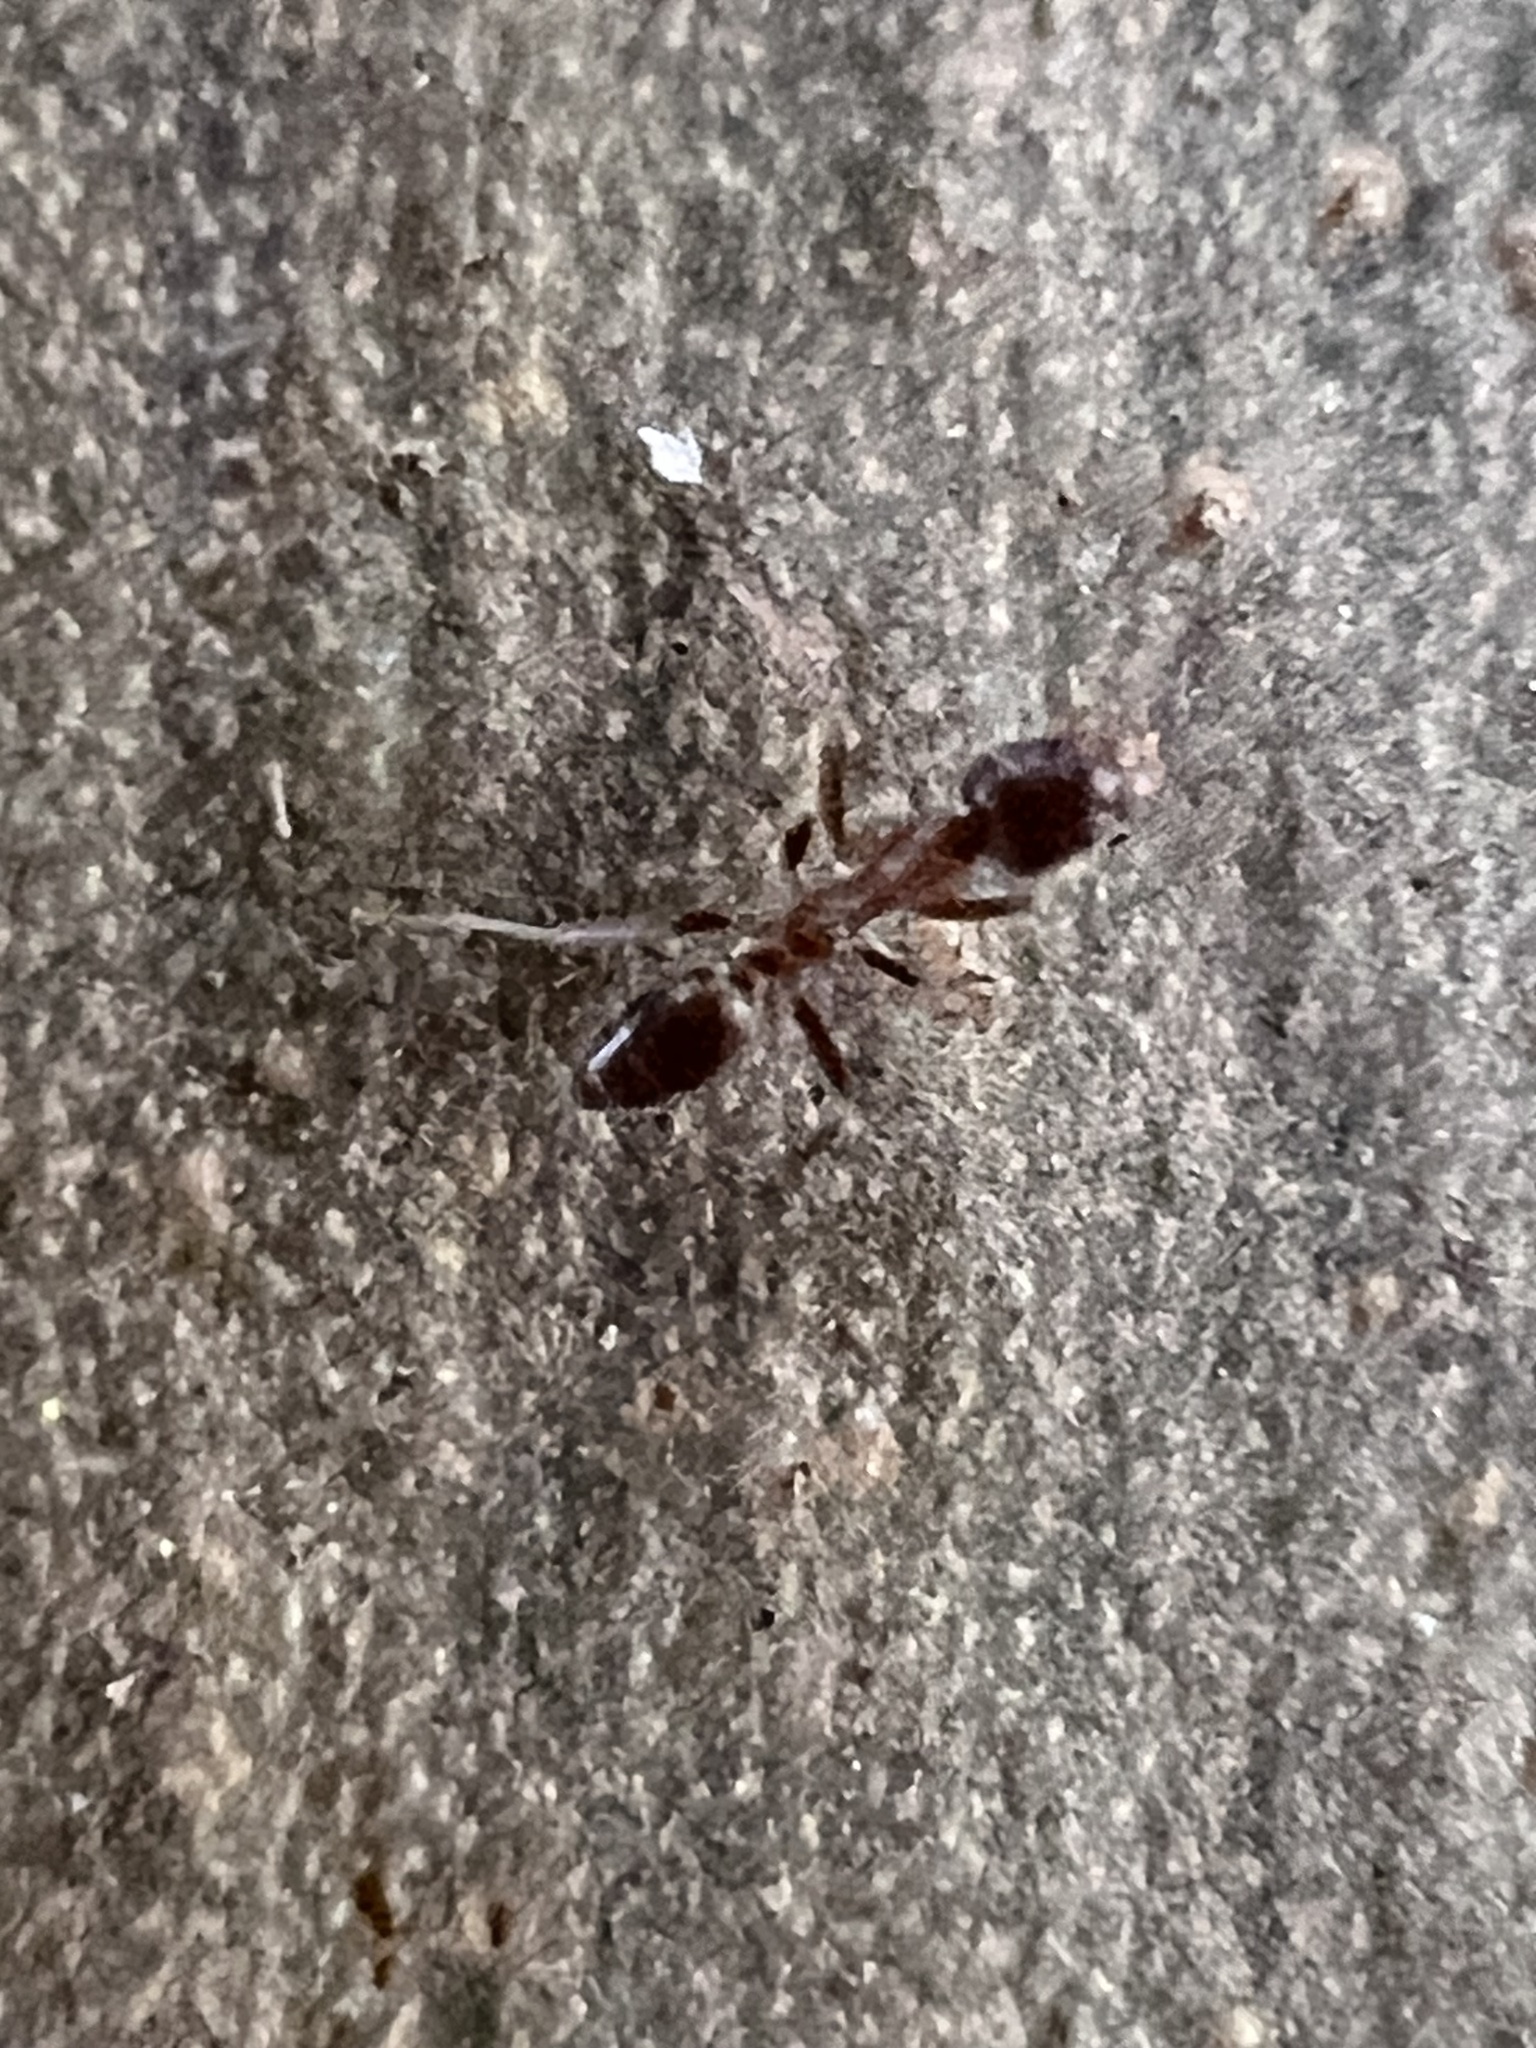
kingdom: Animalia
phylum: Arthropoda
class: Insecta
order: Hymenoptera
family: Formicidae
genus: Linepithema
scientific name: Linepithema humile
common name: Argentine ant
